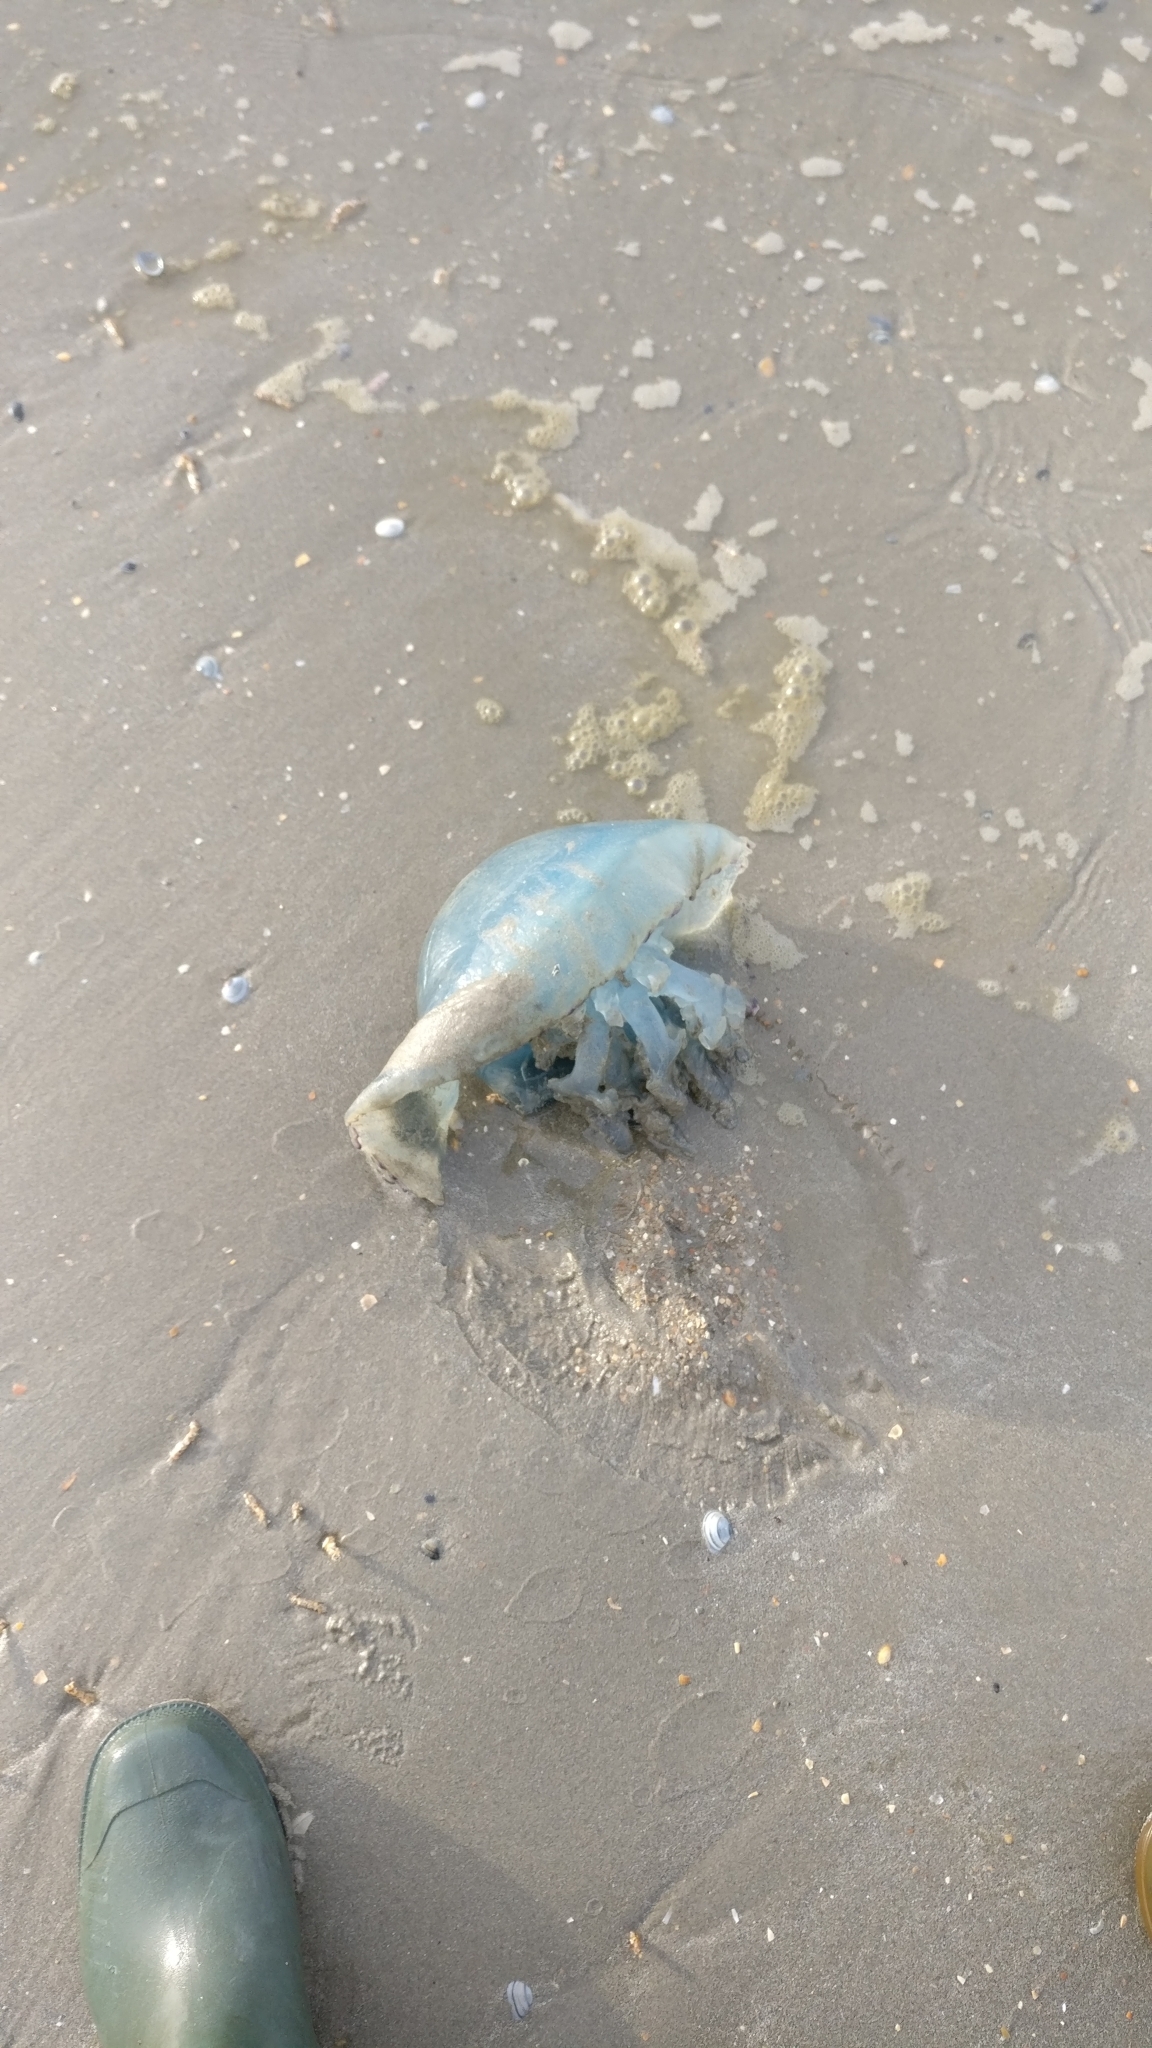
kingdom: Animalia
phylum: Cnidaria
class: Scyphozoa
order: Rhizostomeae
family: Rhizostomatidae
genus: Rhizostoma
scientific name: Rhizostoma octopus
